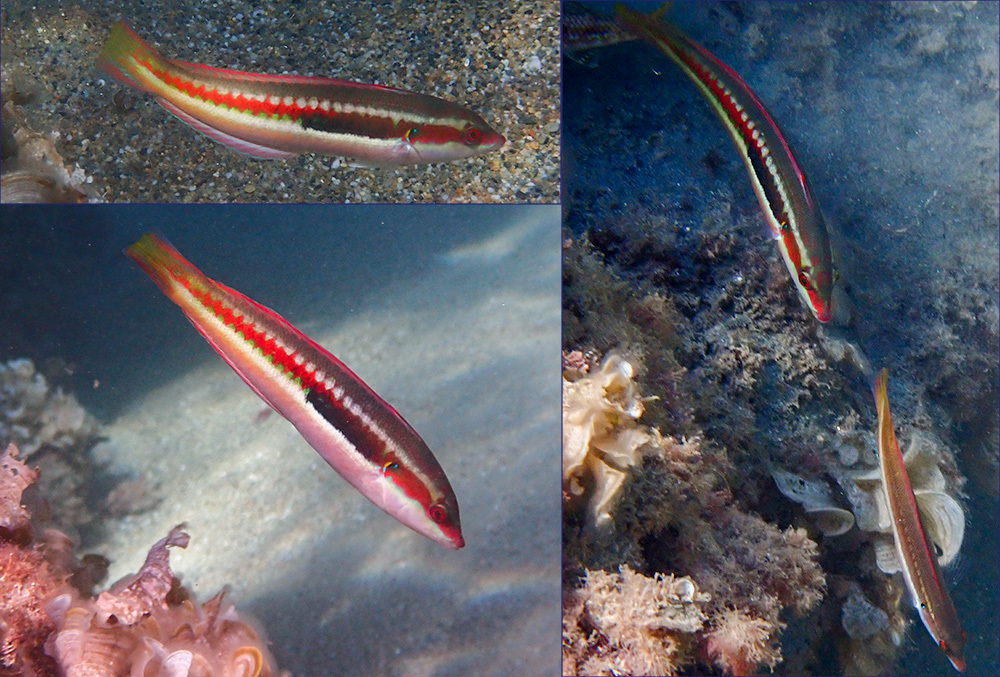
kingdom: Animalia
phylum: Chordata
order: Perciformes
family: Labridae
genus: Coris
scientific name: Coris julis
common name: Rainbow wrasse
